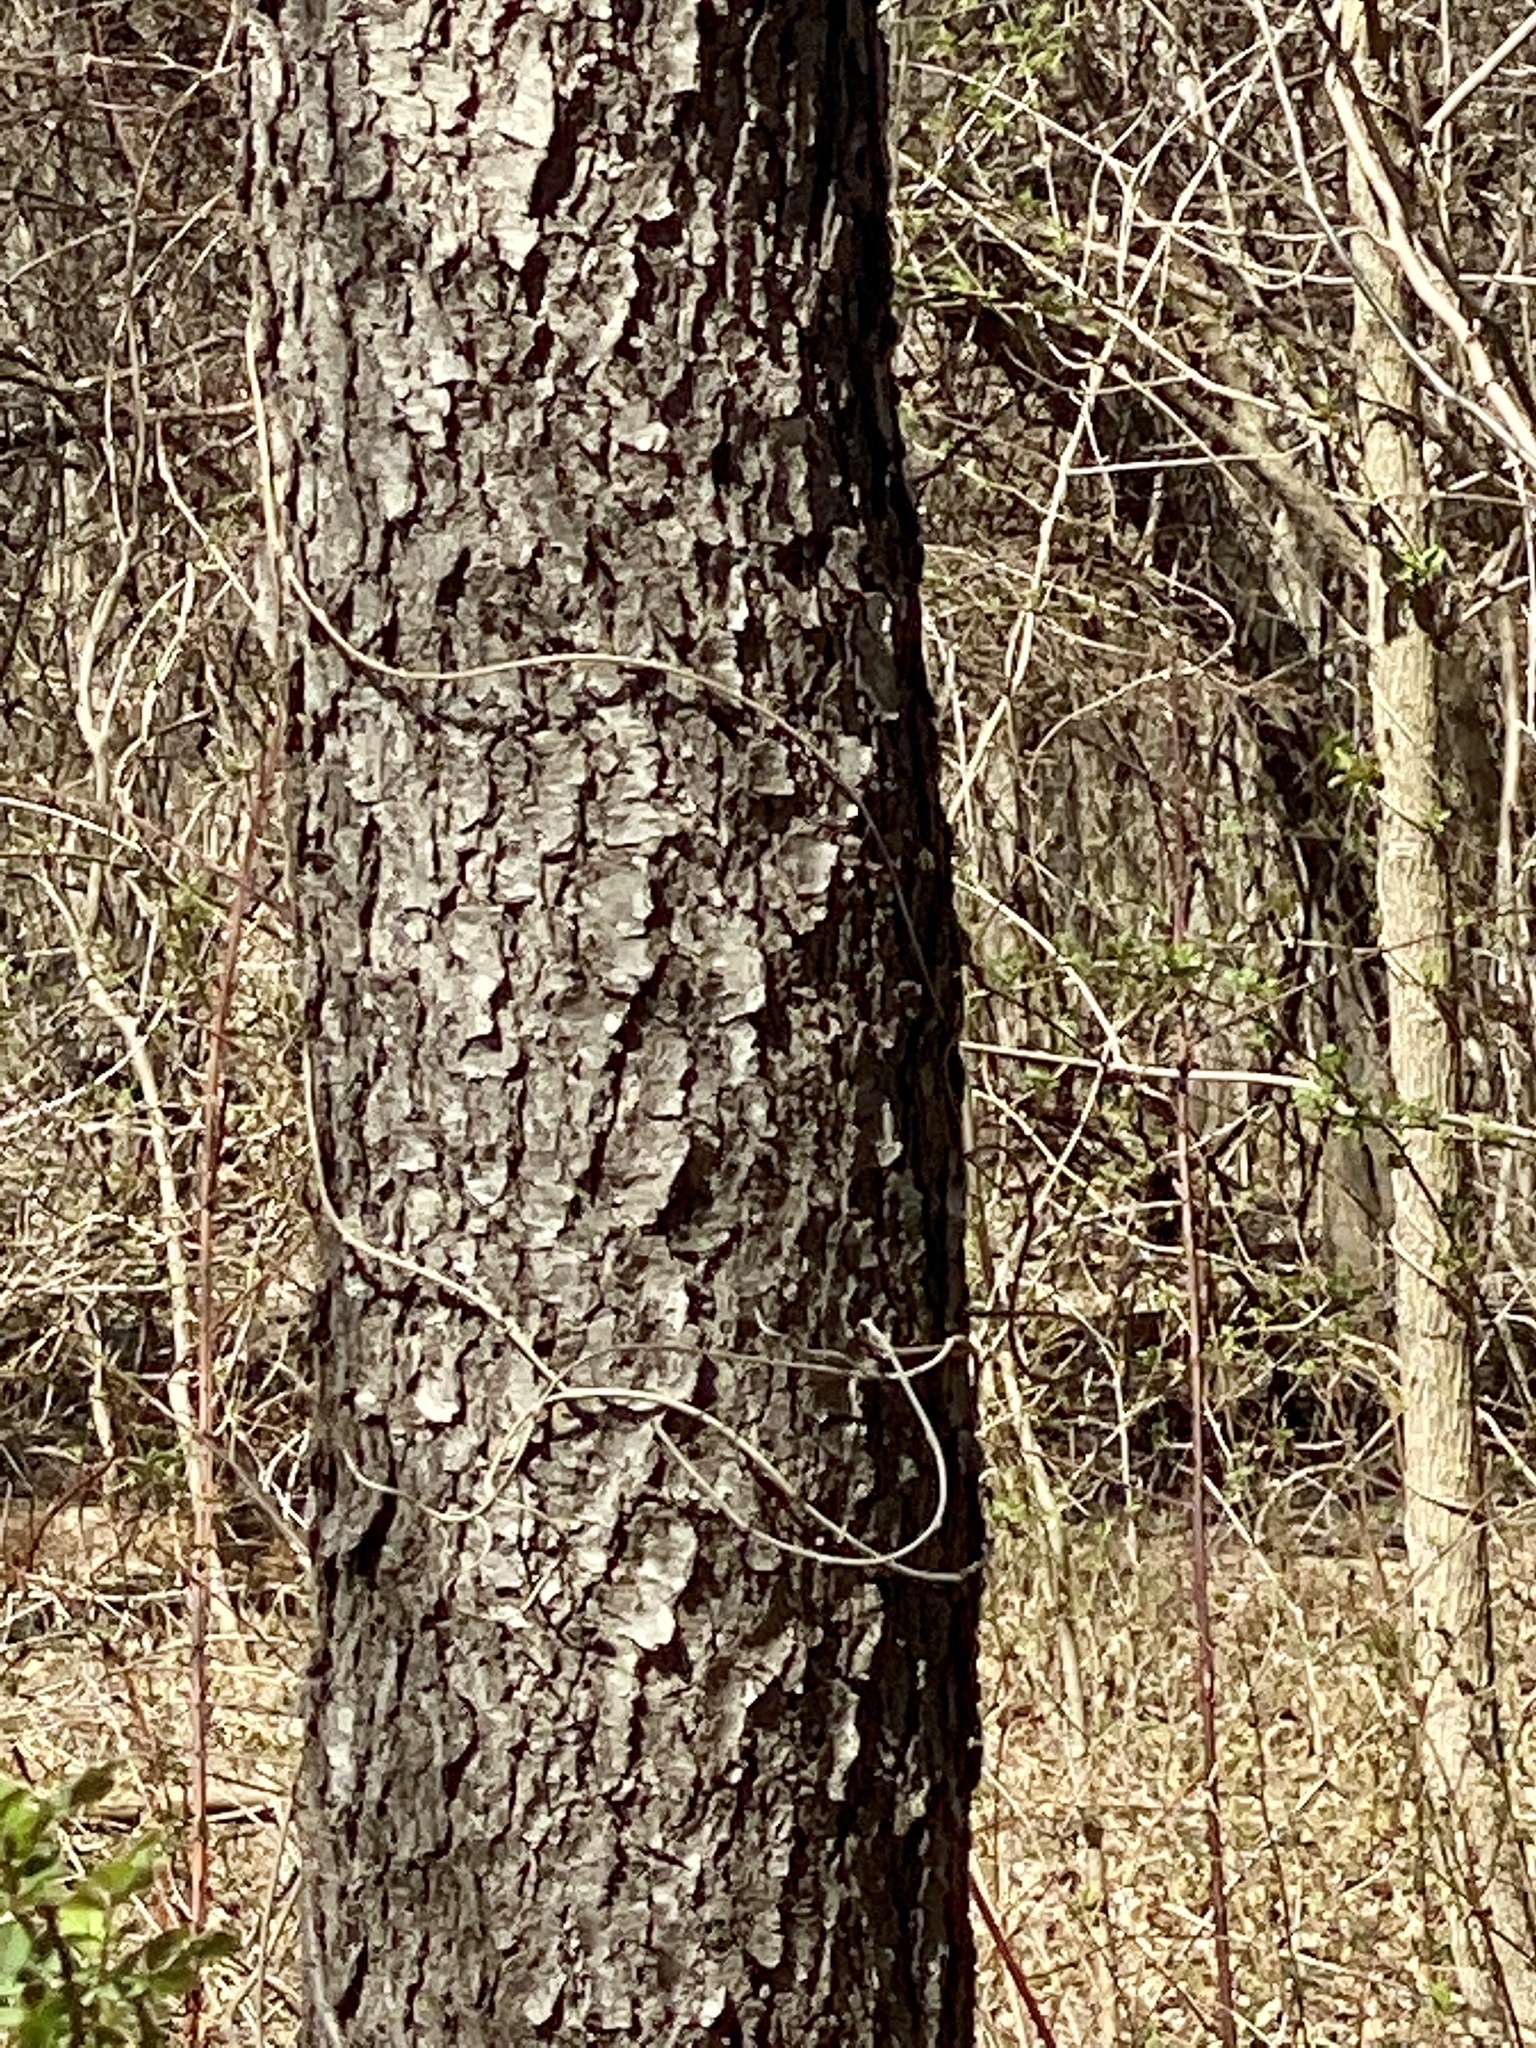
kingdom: Plantae
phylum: Tracheophyta
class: Magnoliopsida
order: Rosales
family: Rosaceae
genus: Prunus
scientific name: Prunus serotina
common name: Black cherry
